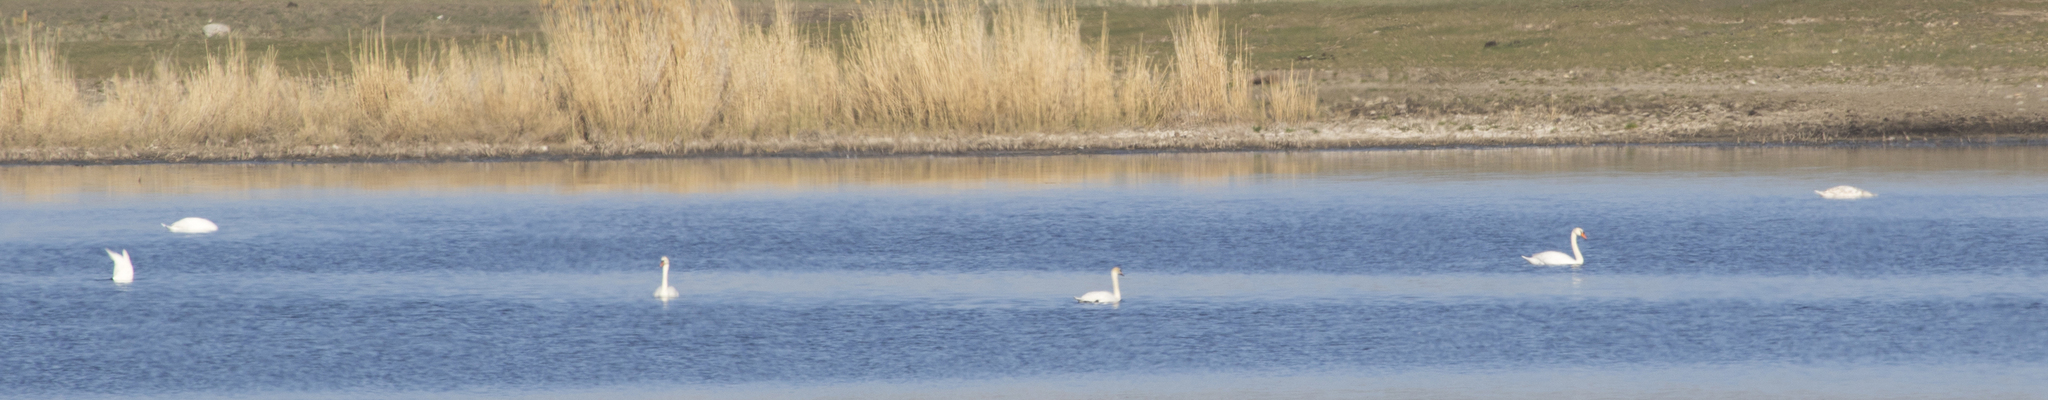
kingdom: Animalia
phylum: Chordata
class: Aves
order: Anseriformes
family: Anatidae
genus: Cygnus
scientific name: Cygnus olor
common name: Mute swan
